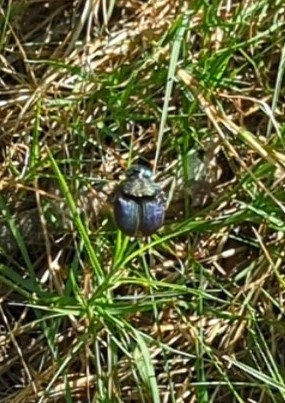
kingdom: Animalia
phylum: Arthropoda
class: Insecta
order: Coleoptera
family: Scarabaeidae
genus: Phanaeus
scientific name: Phanaeus difformis
